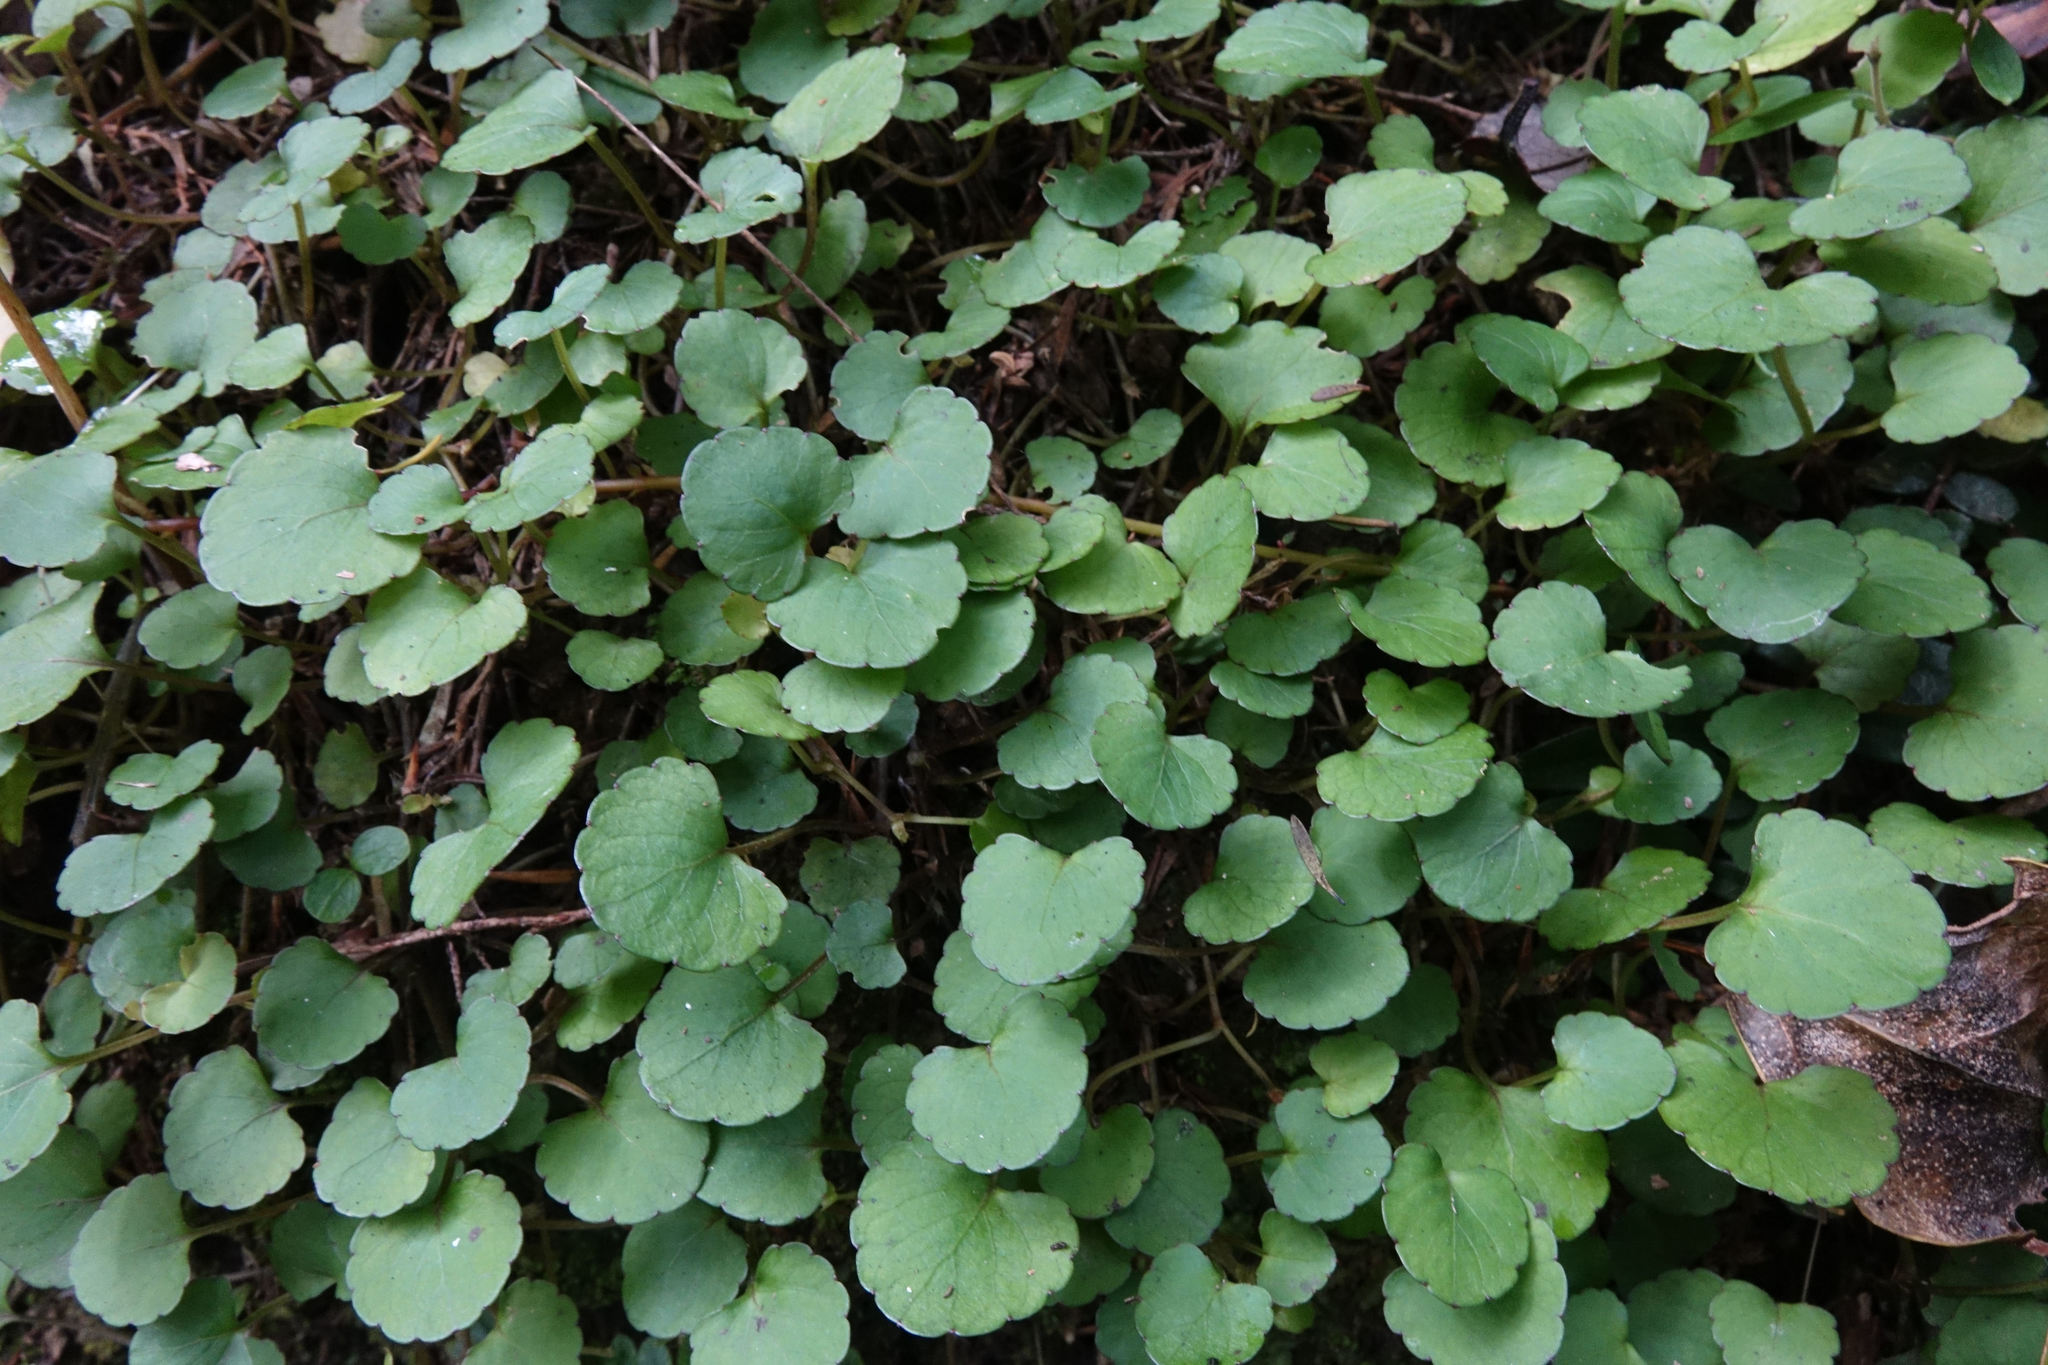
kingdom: Plantae
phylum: Tracheophyta
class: Magnoliopsida
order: Malpighiales
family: Violaceae
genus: Viola
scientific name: Viola filicaulis
